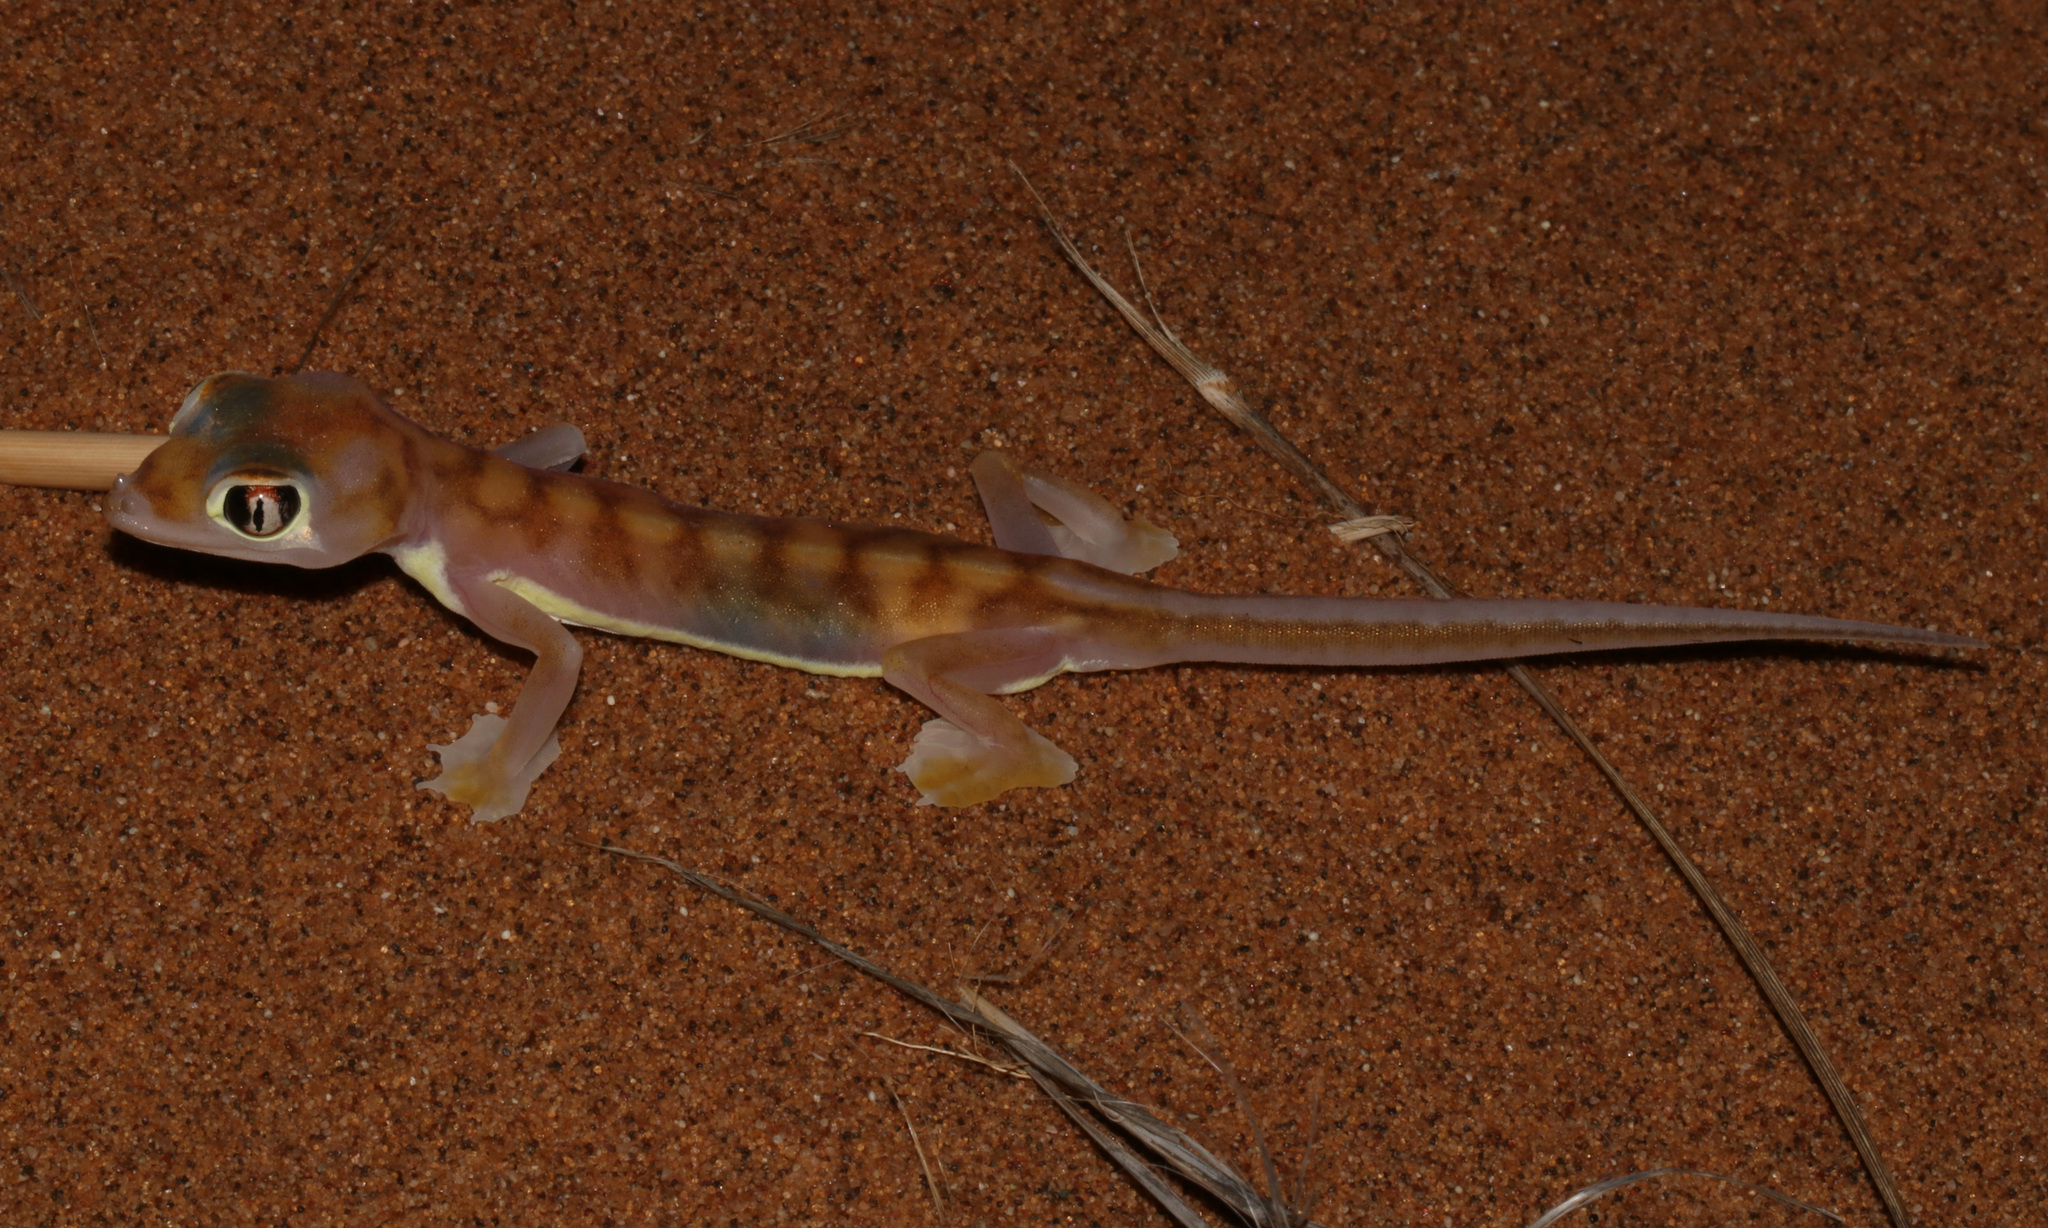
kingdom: Animalia
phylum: Chordata
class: Squamata
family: Gekkonidae
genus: Pachydactylus
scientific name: Pachydactylus rangei
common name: Namib sand gecko
